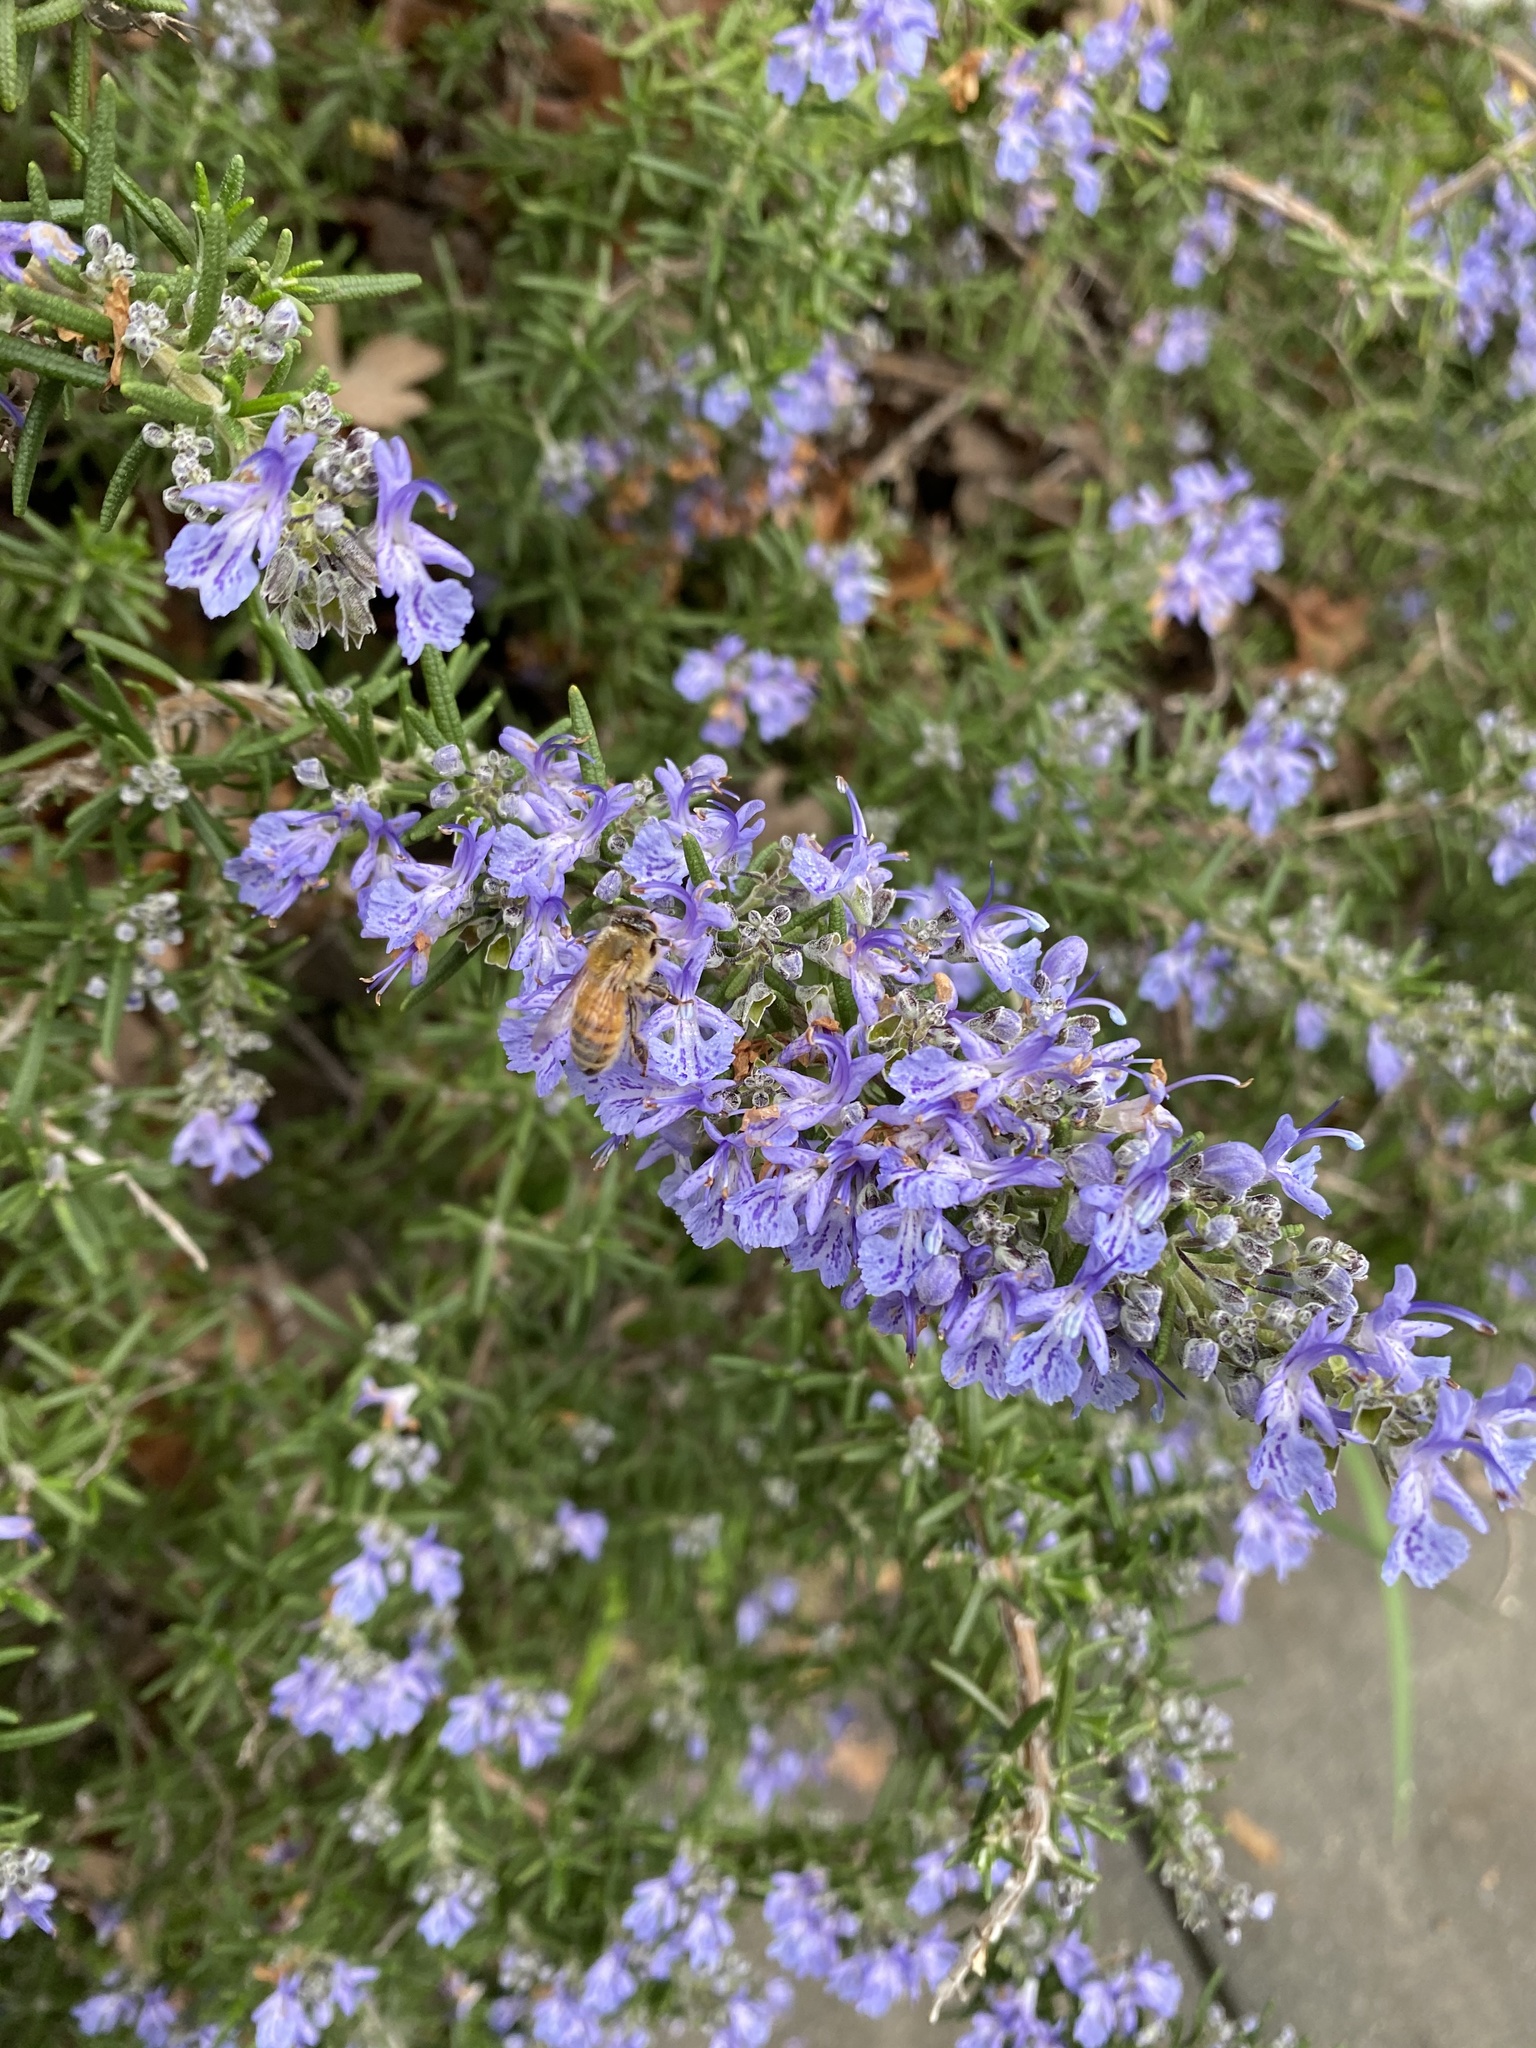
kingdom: Animalia
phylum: Arthropoda
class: Insecta
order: Hymenoptera
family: Apidae
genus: Apis
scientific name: Apis mellifera
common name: Honey bee
